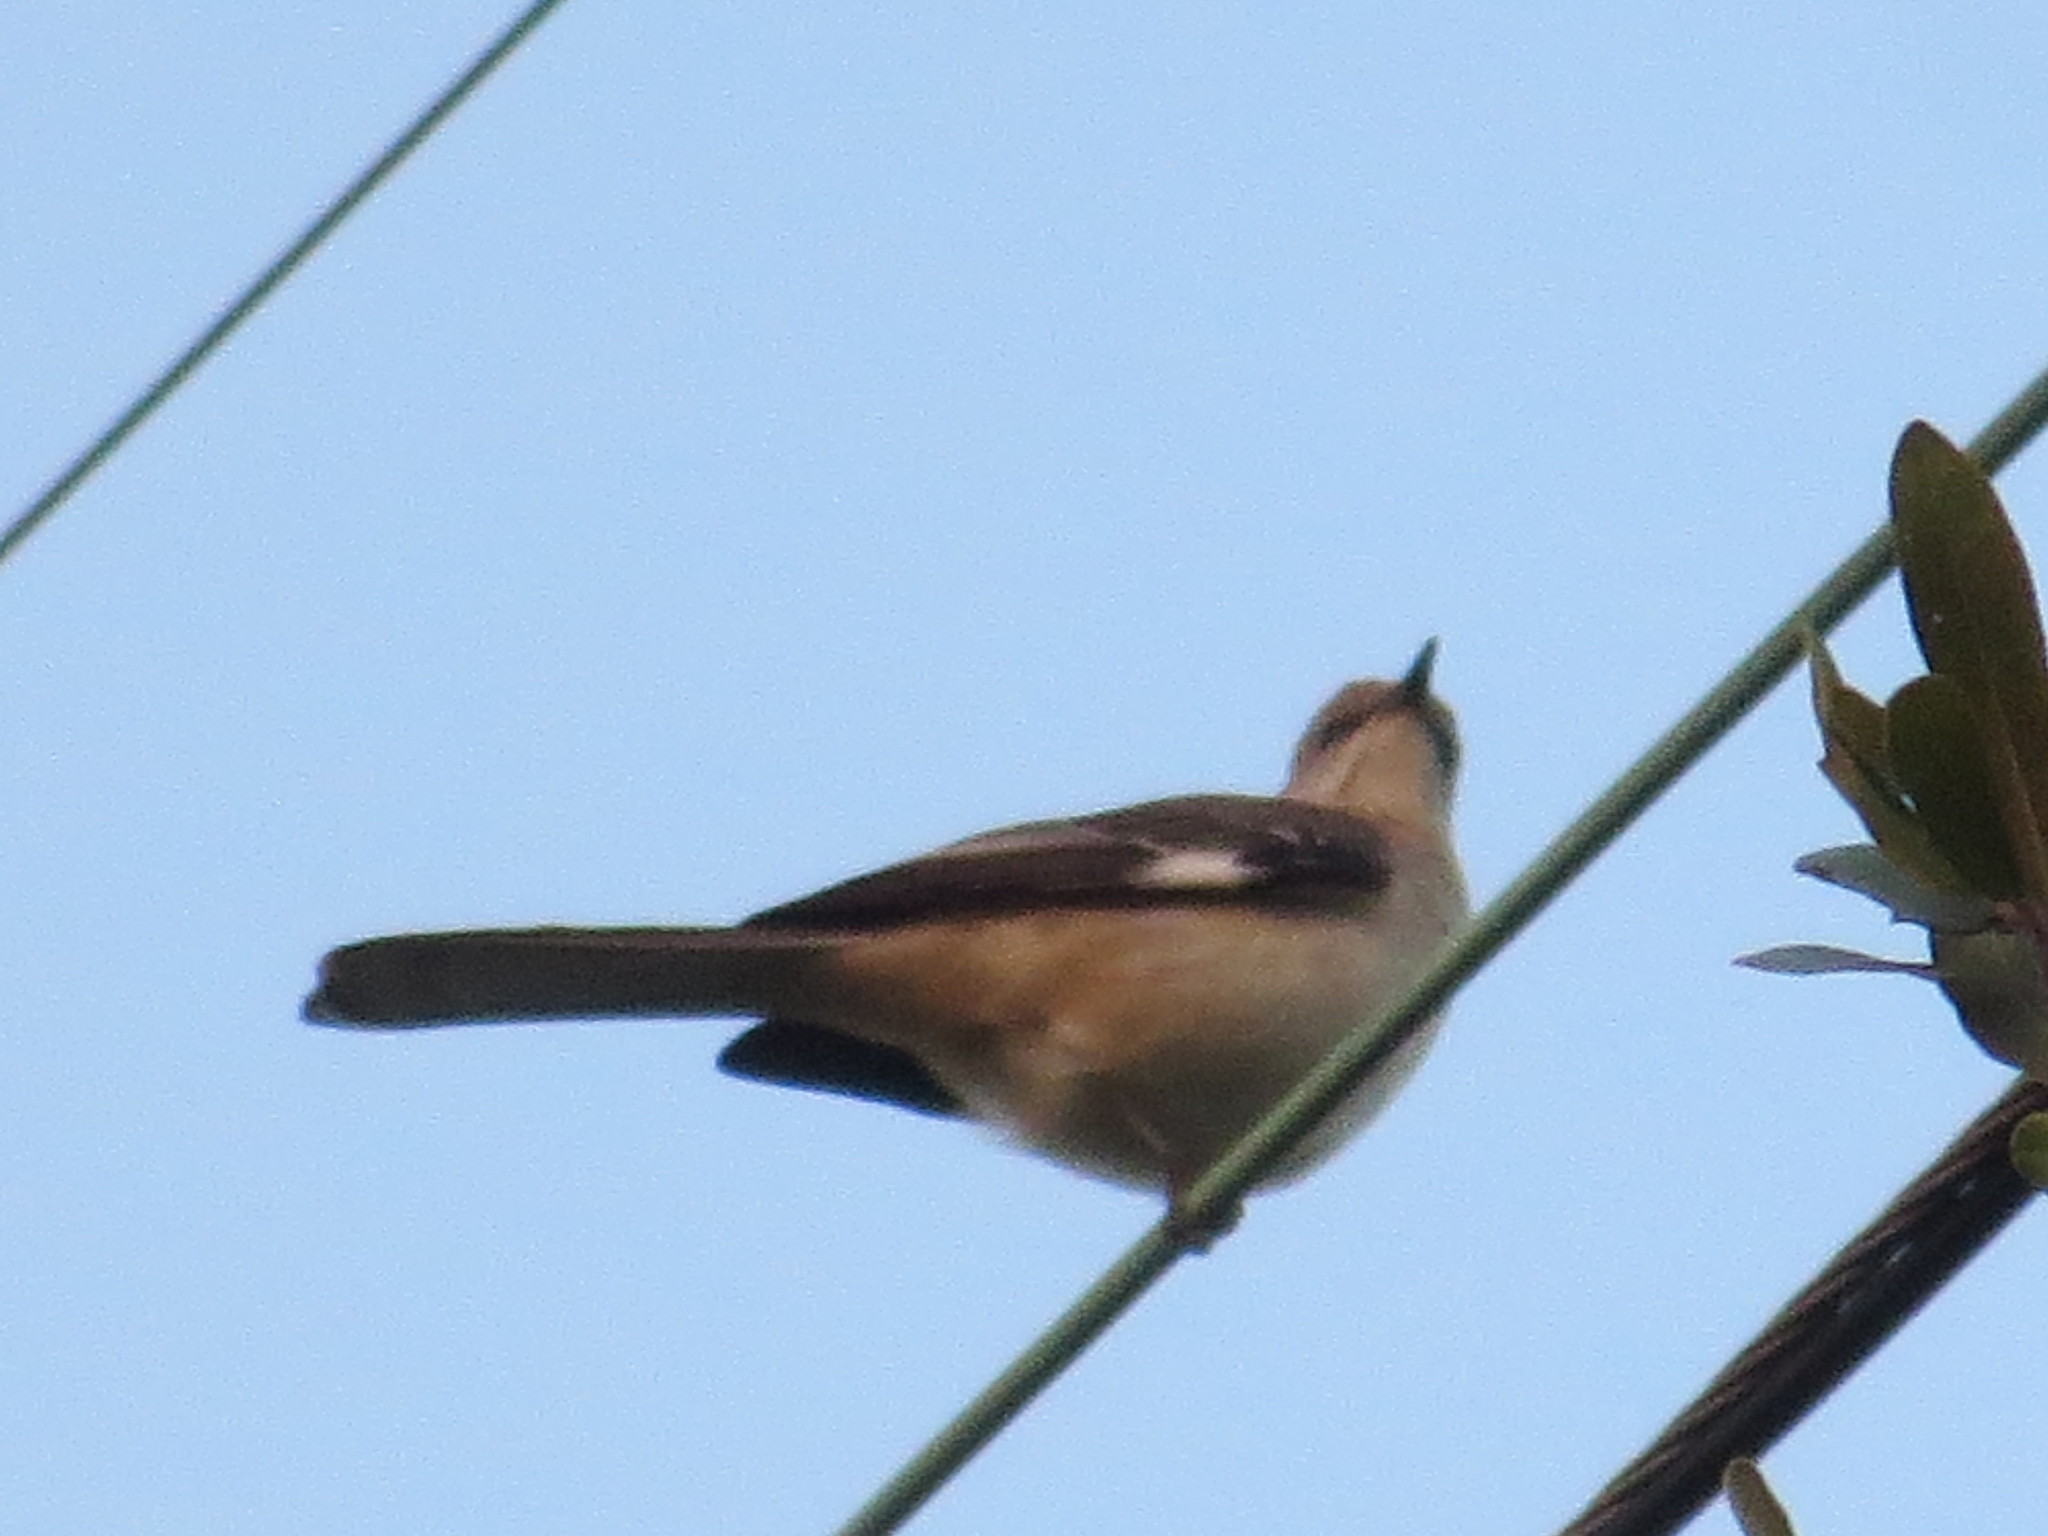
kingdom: Animalia
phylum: Chordata
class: Aves
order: Passeriformes
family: Mimidae
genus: Mimus
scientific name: Mimus polyglottos
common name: Northern mockingbird
